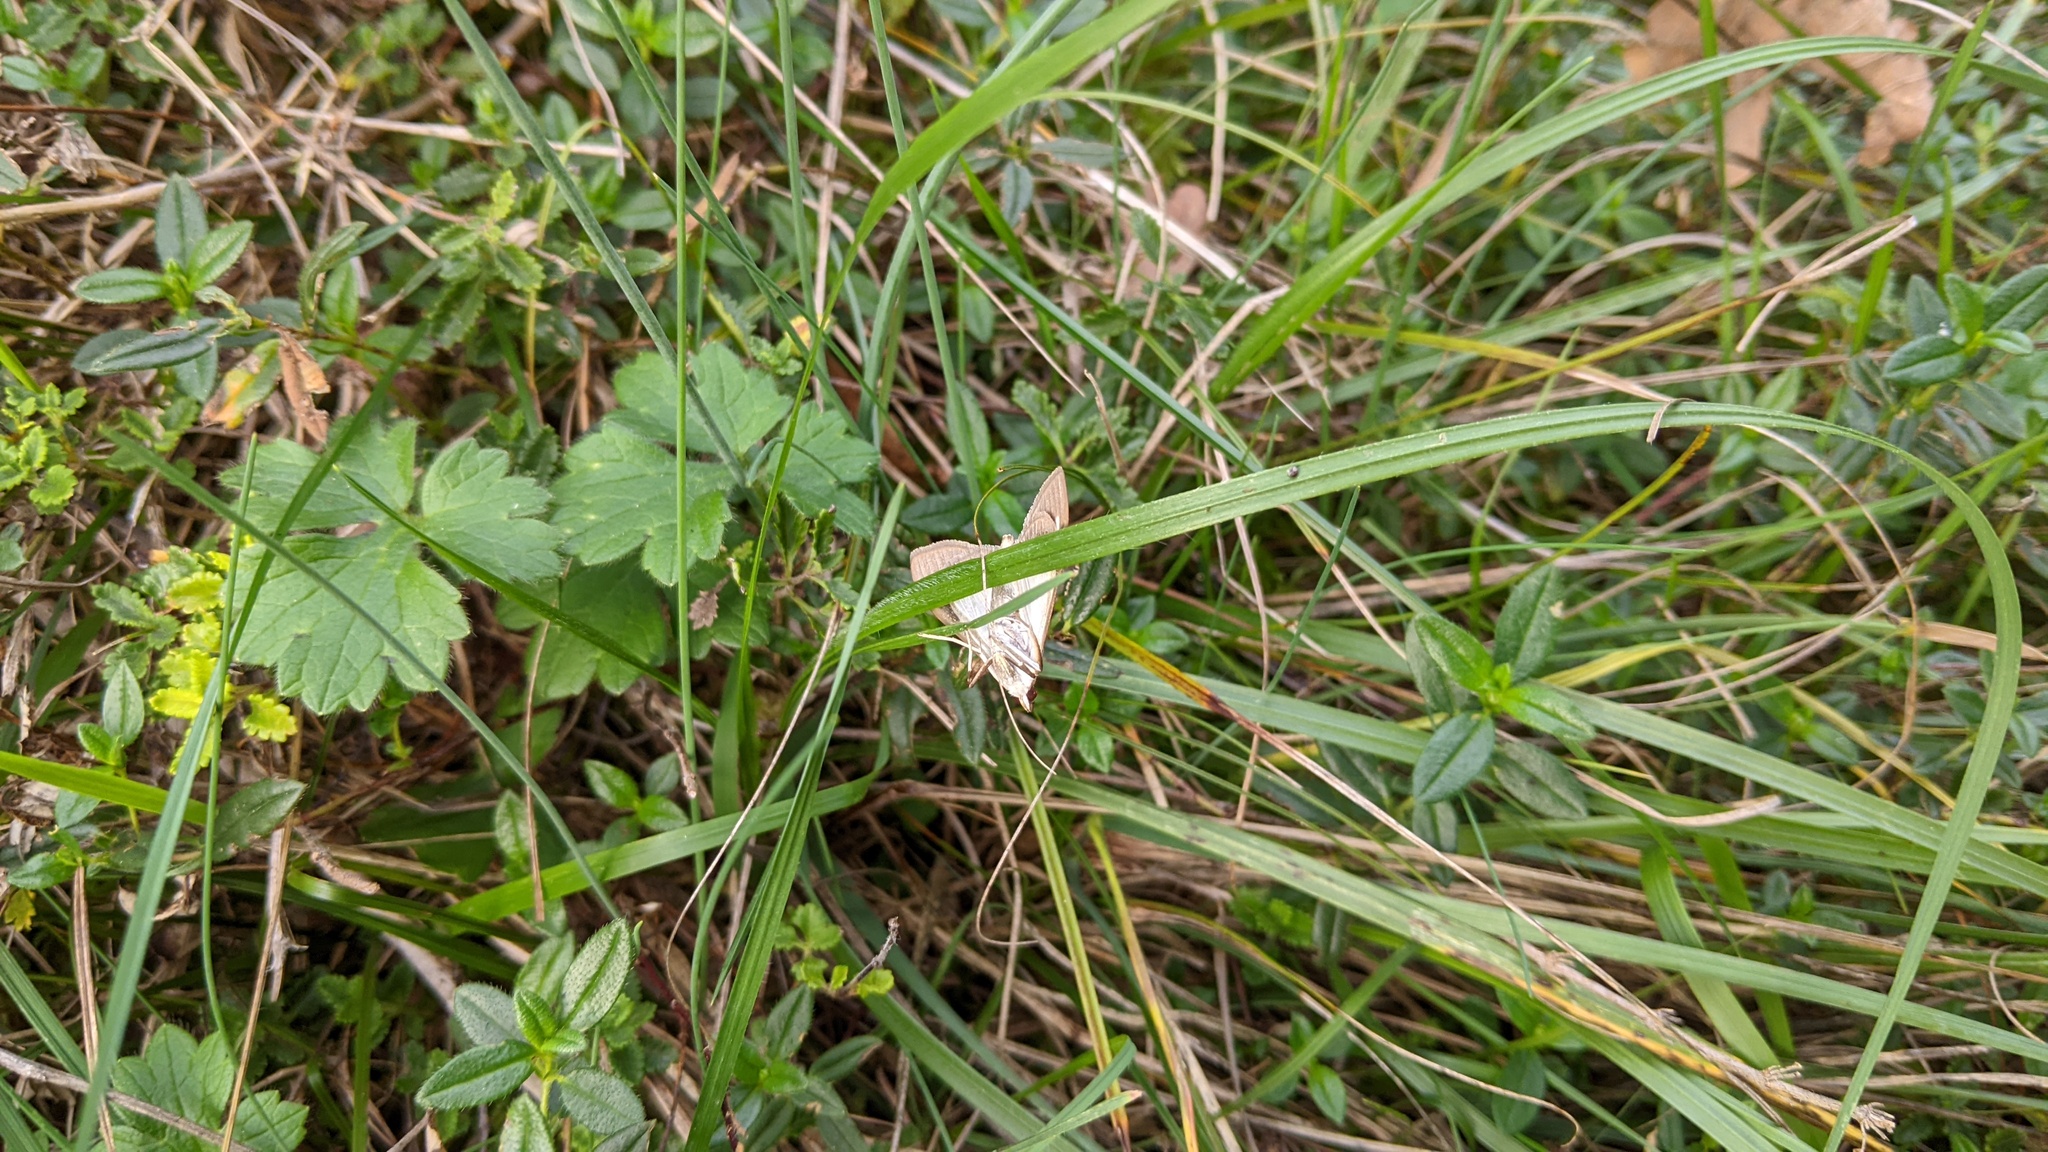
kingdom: Animalia
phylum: Arthropoda
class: Insecta
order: Lepidoptera
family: Crambidae
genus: Cydalima
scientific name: Cydalima perspectalis
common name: Box tree moth
